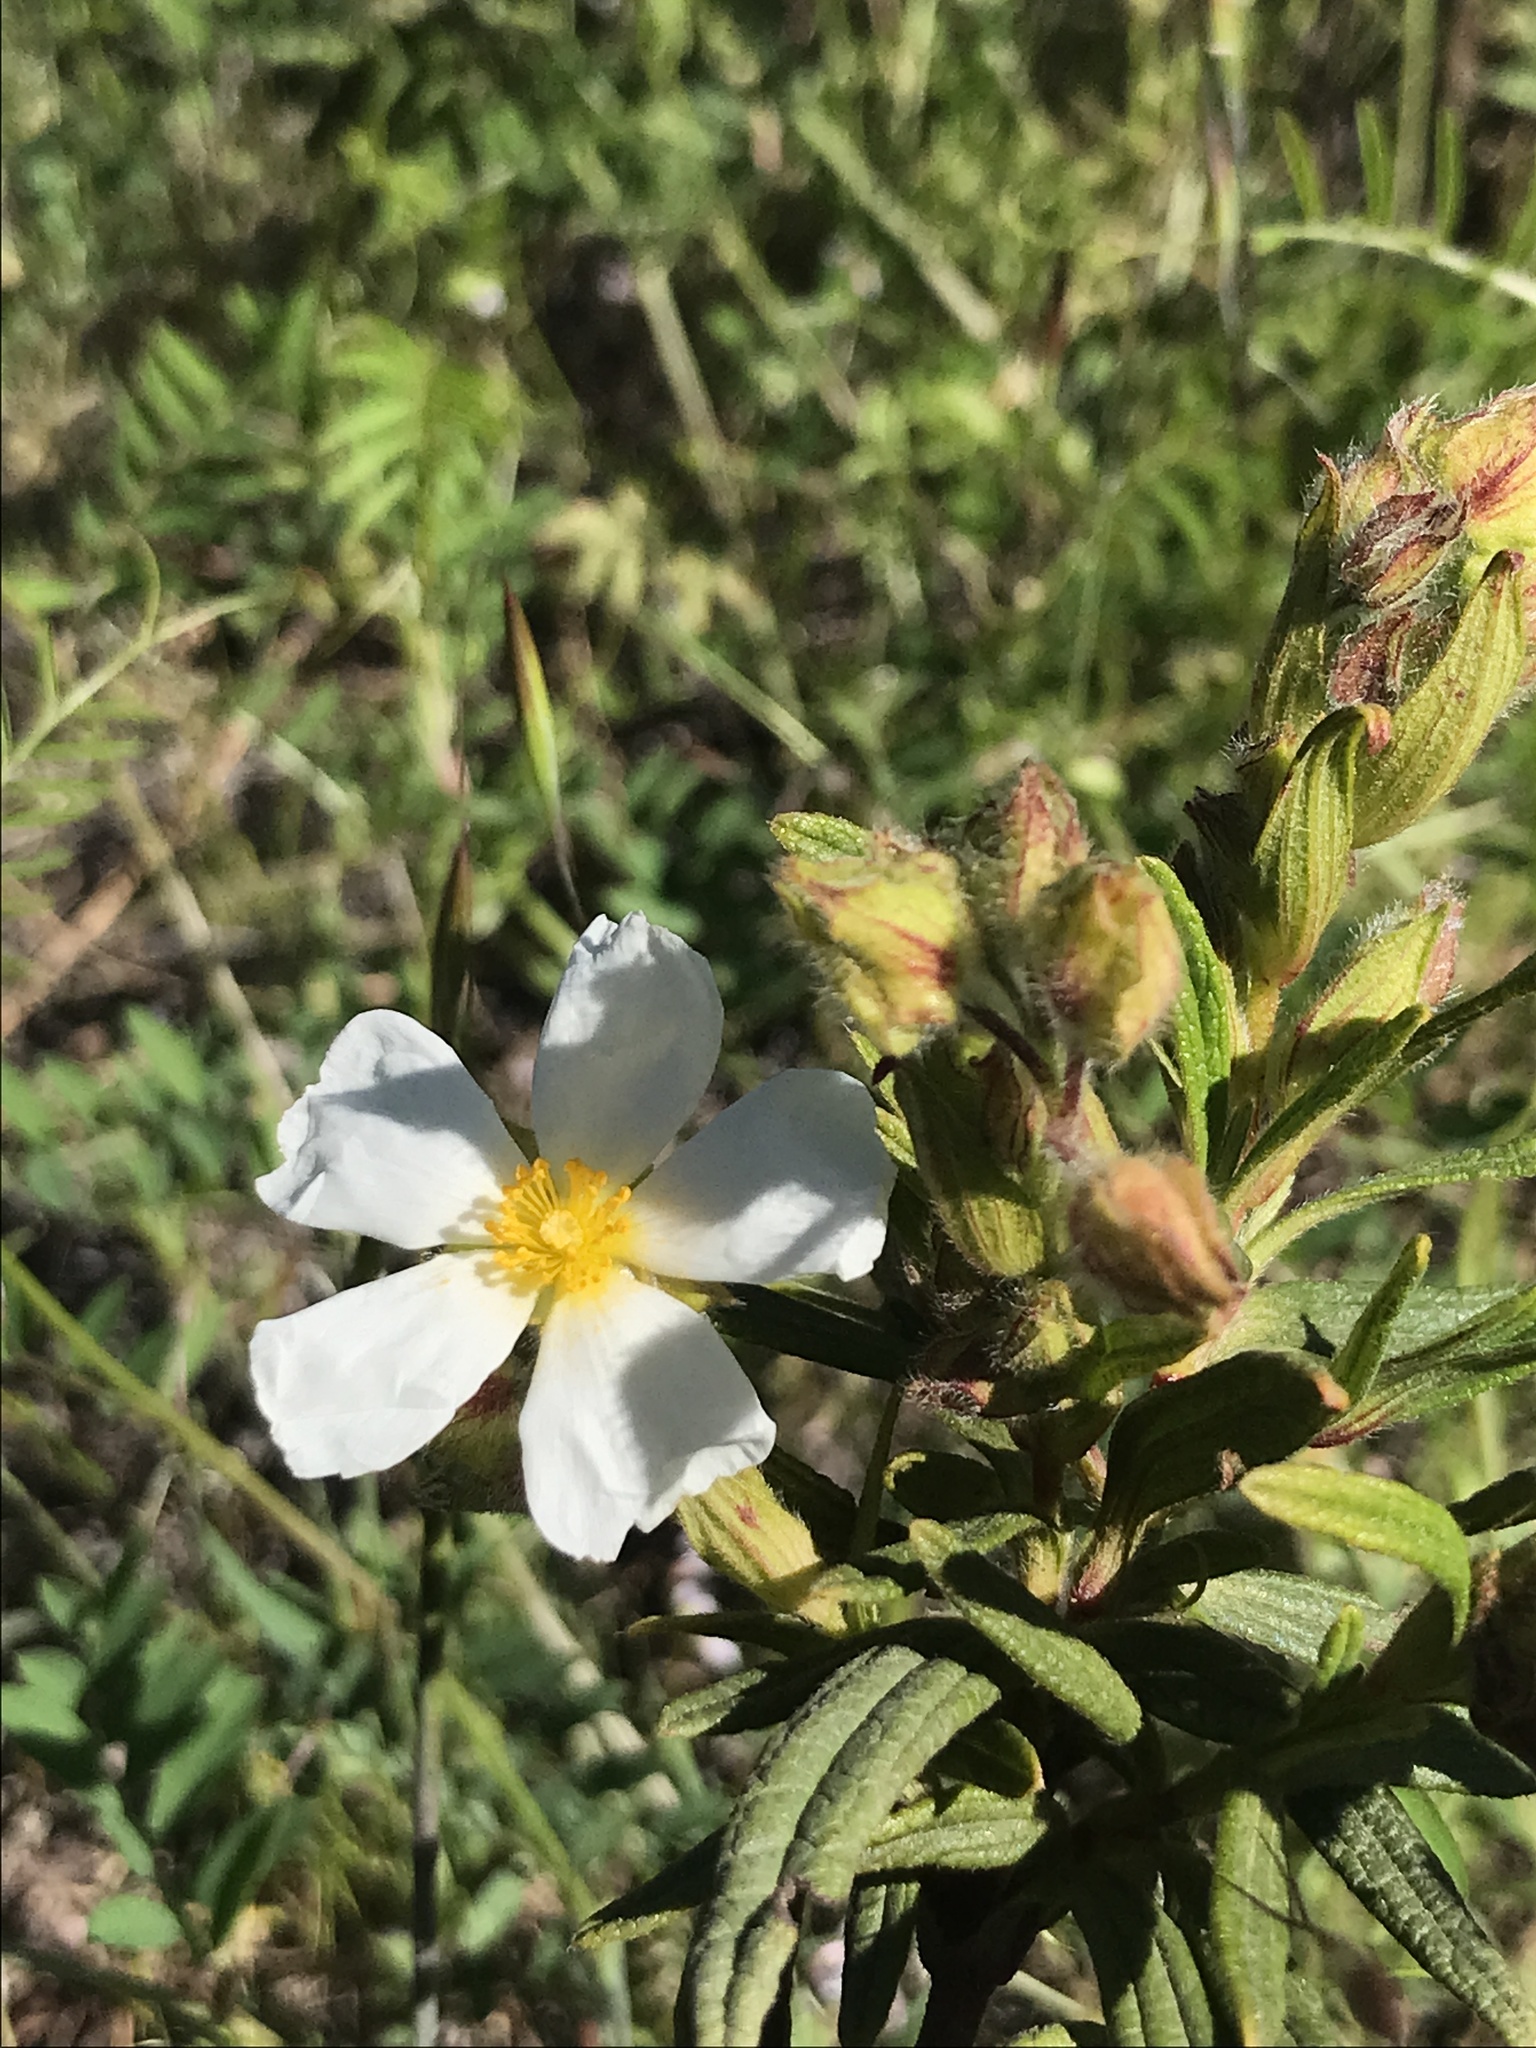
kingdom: Plantae
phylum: Tracheophyta
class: Magnoliopsida
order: Malvales
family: Cistaceae
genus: Cistus
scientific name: Cistus monspeliensis
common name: Montpelier cistus
